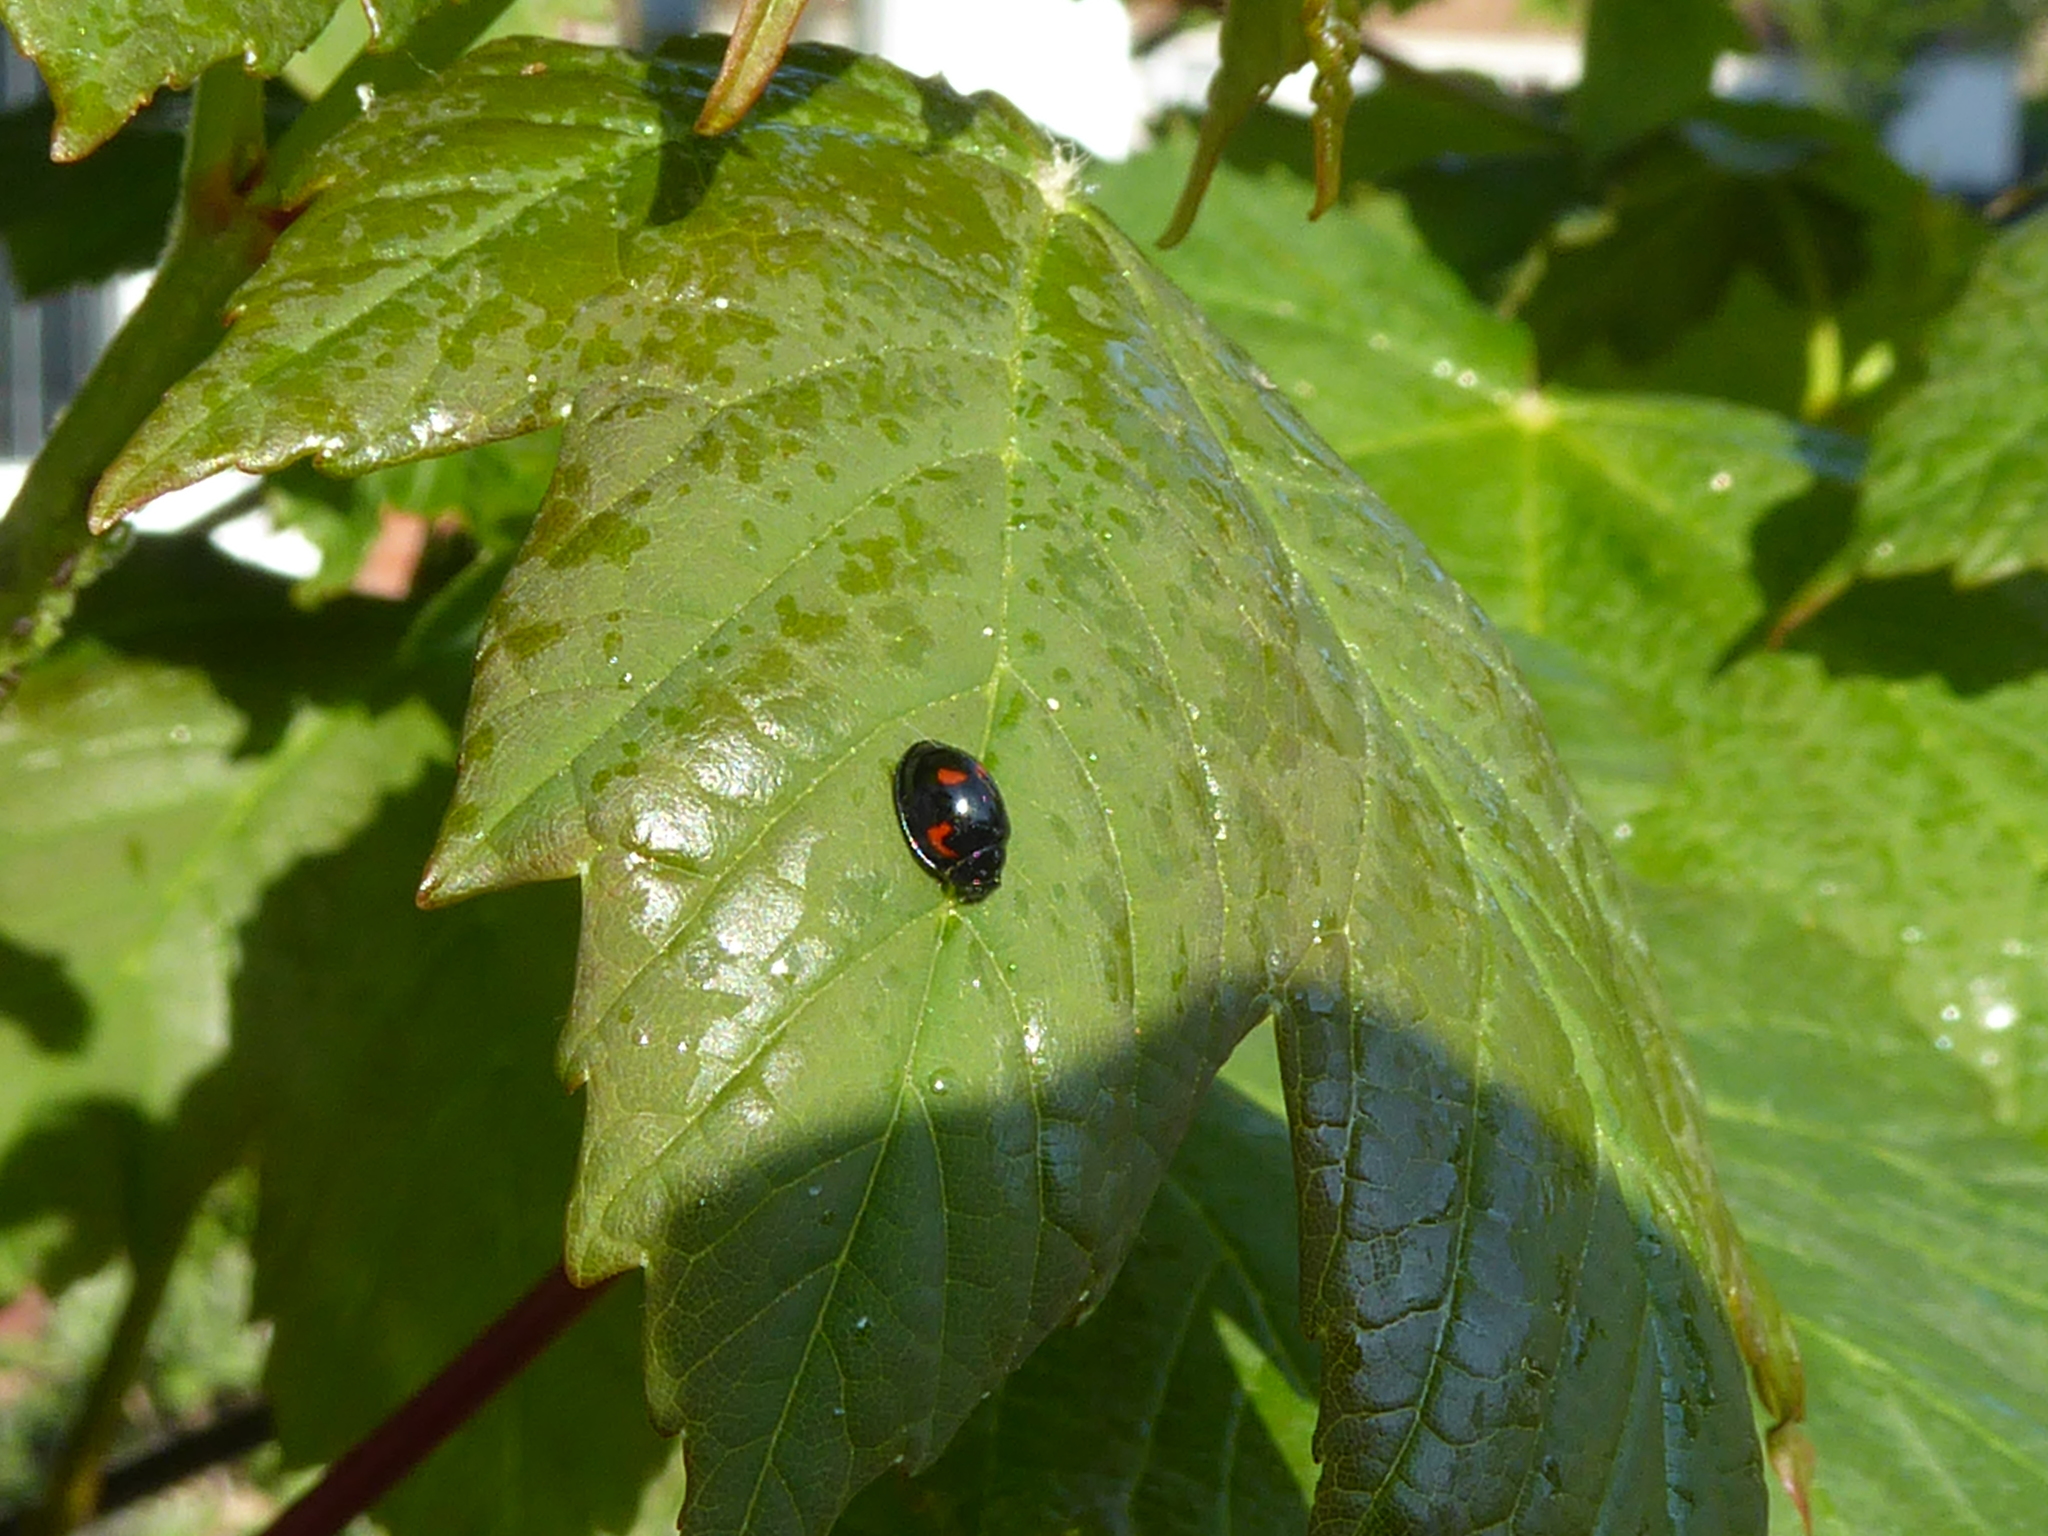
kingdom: Animalia
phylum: Arthropoda
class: Insecta
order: Coleoptera
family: Coccinellidae
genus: Brumus
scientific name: Brumus quadripustulatus
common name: Ladybird beetle
